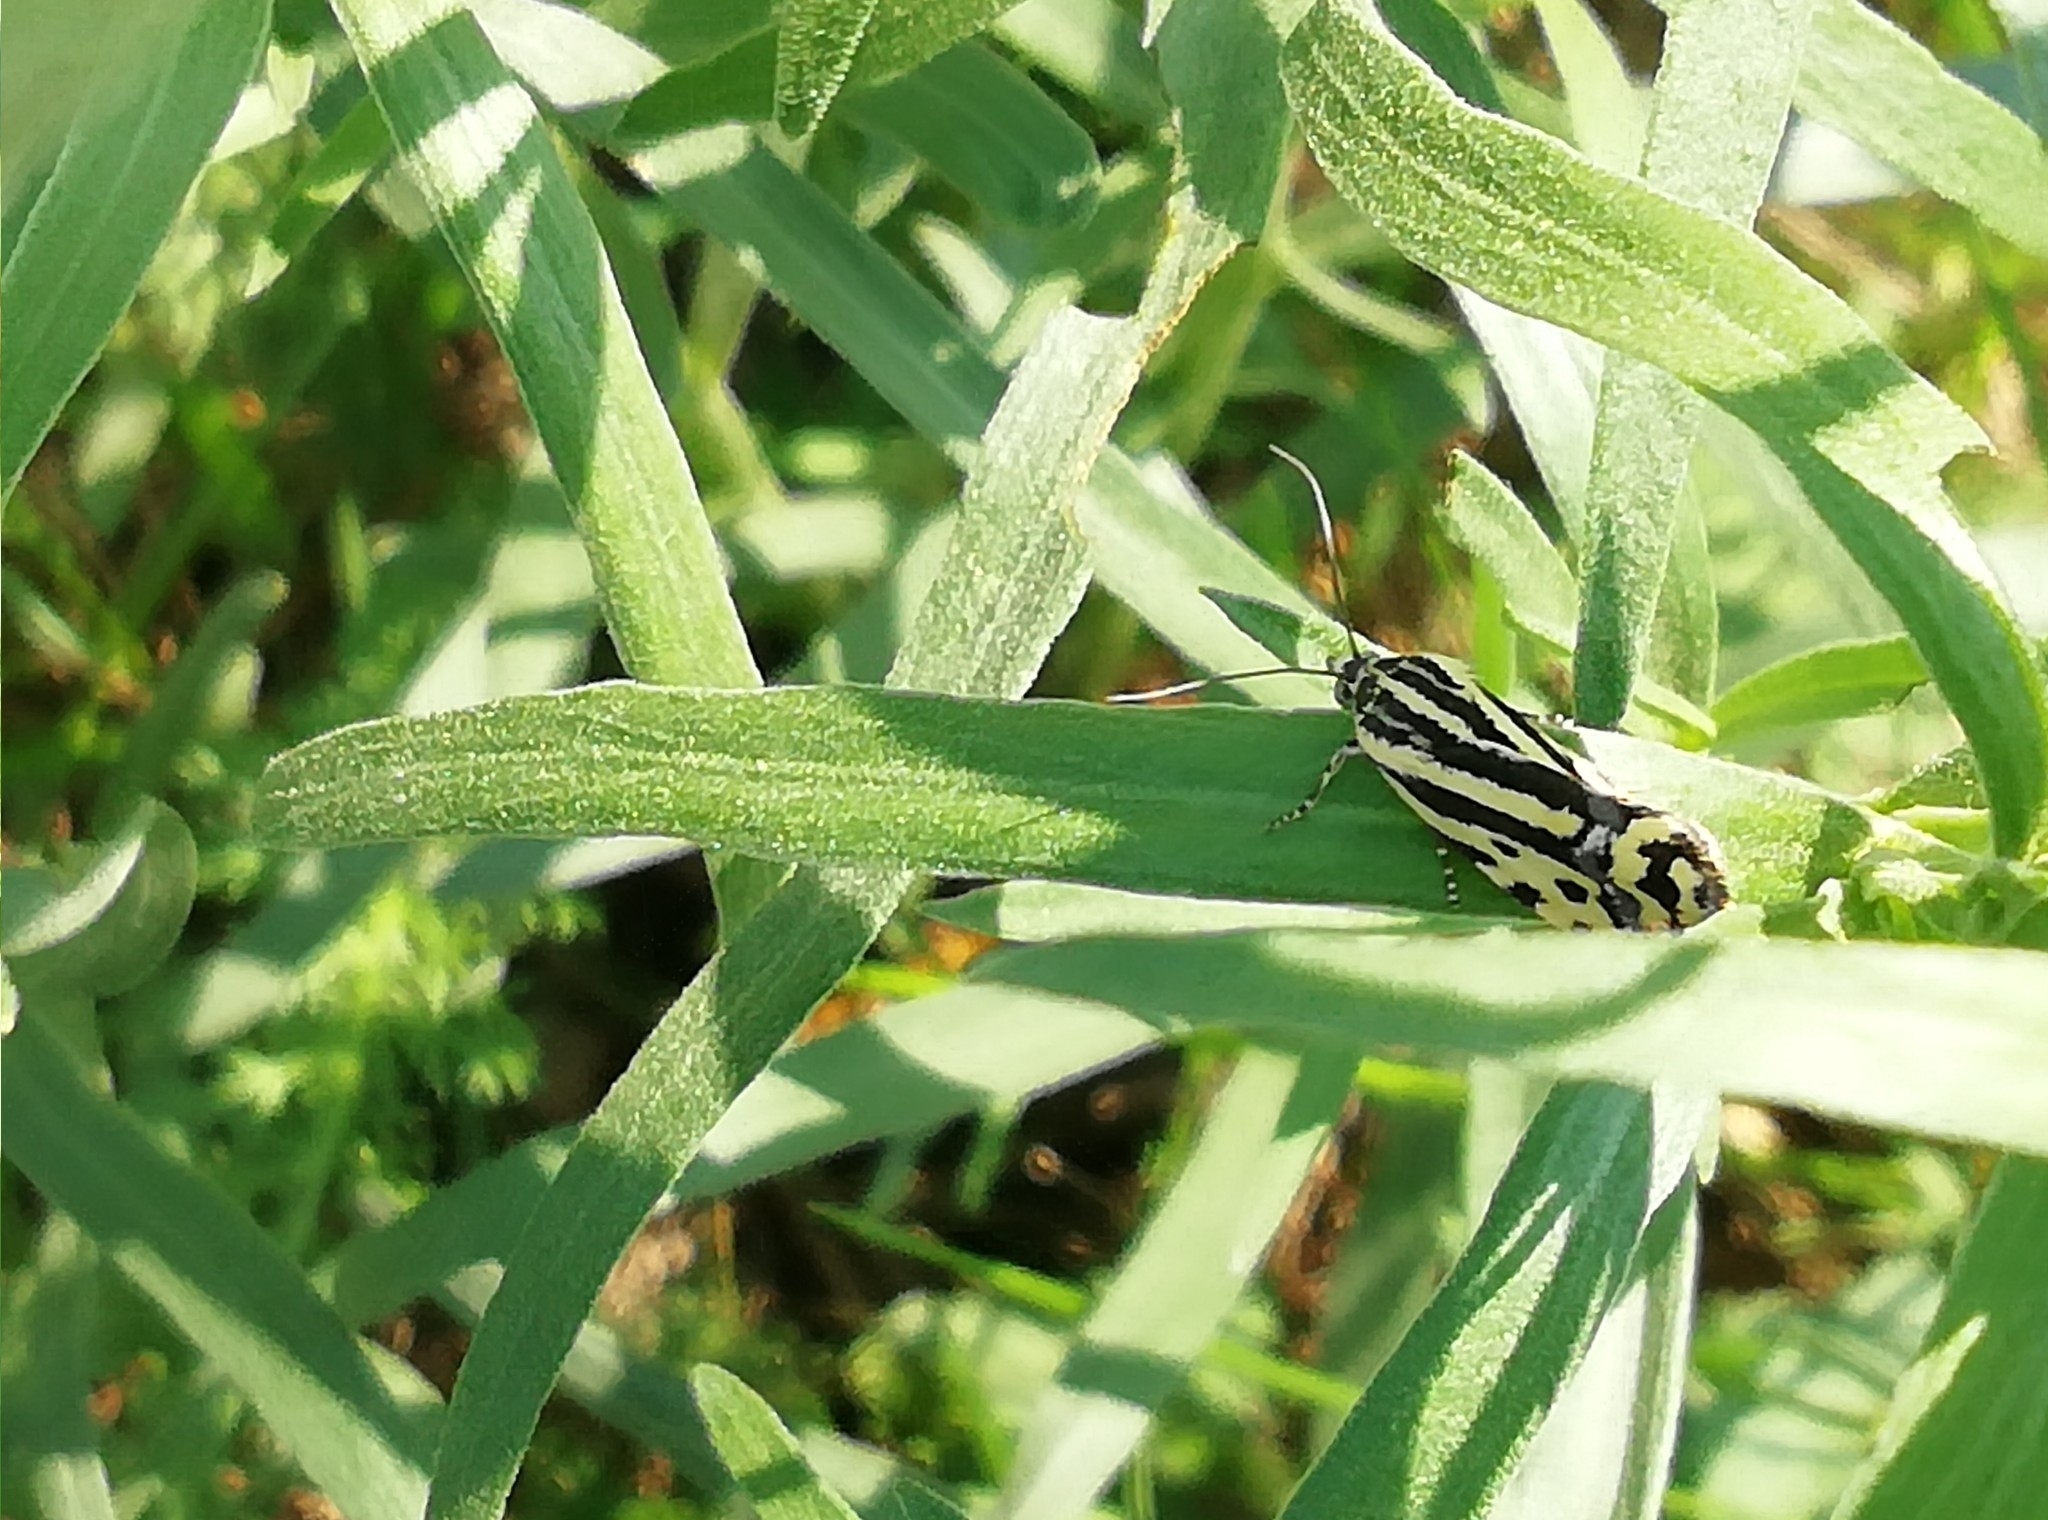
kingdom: Animalia
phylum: Arthropoda
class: Insecta
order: Lepidoptera
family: Noctuidae
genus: Acontia
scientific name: Acontia trabealis
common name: Spotted sulphur
